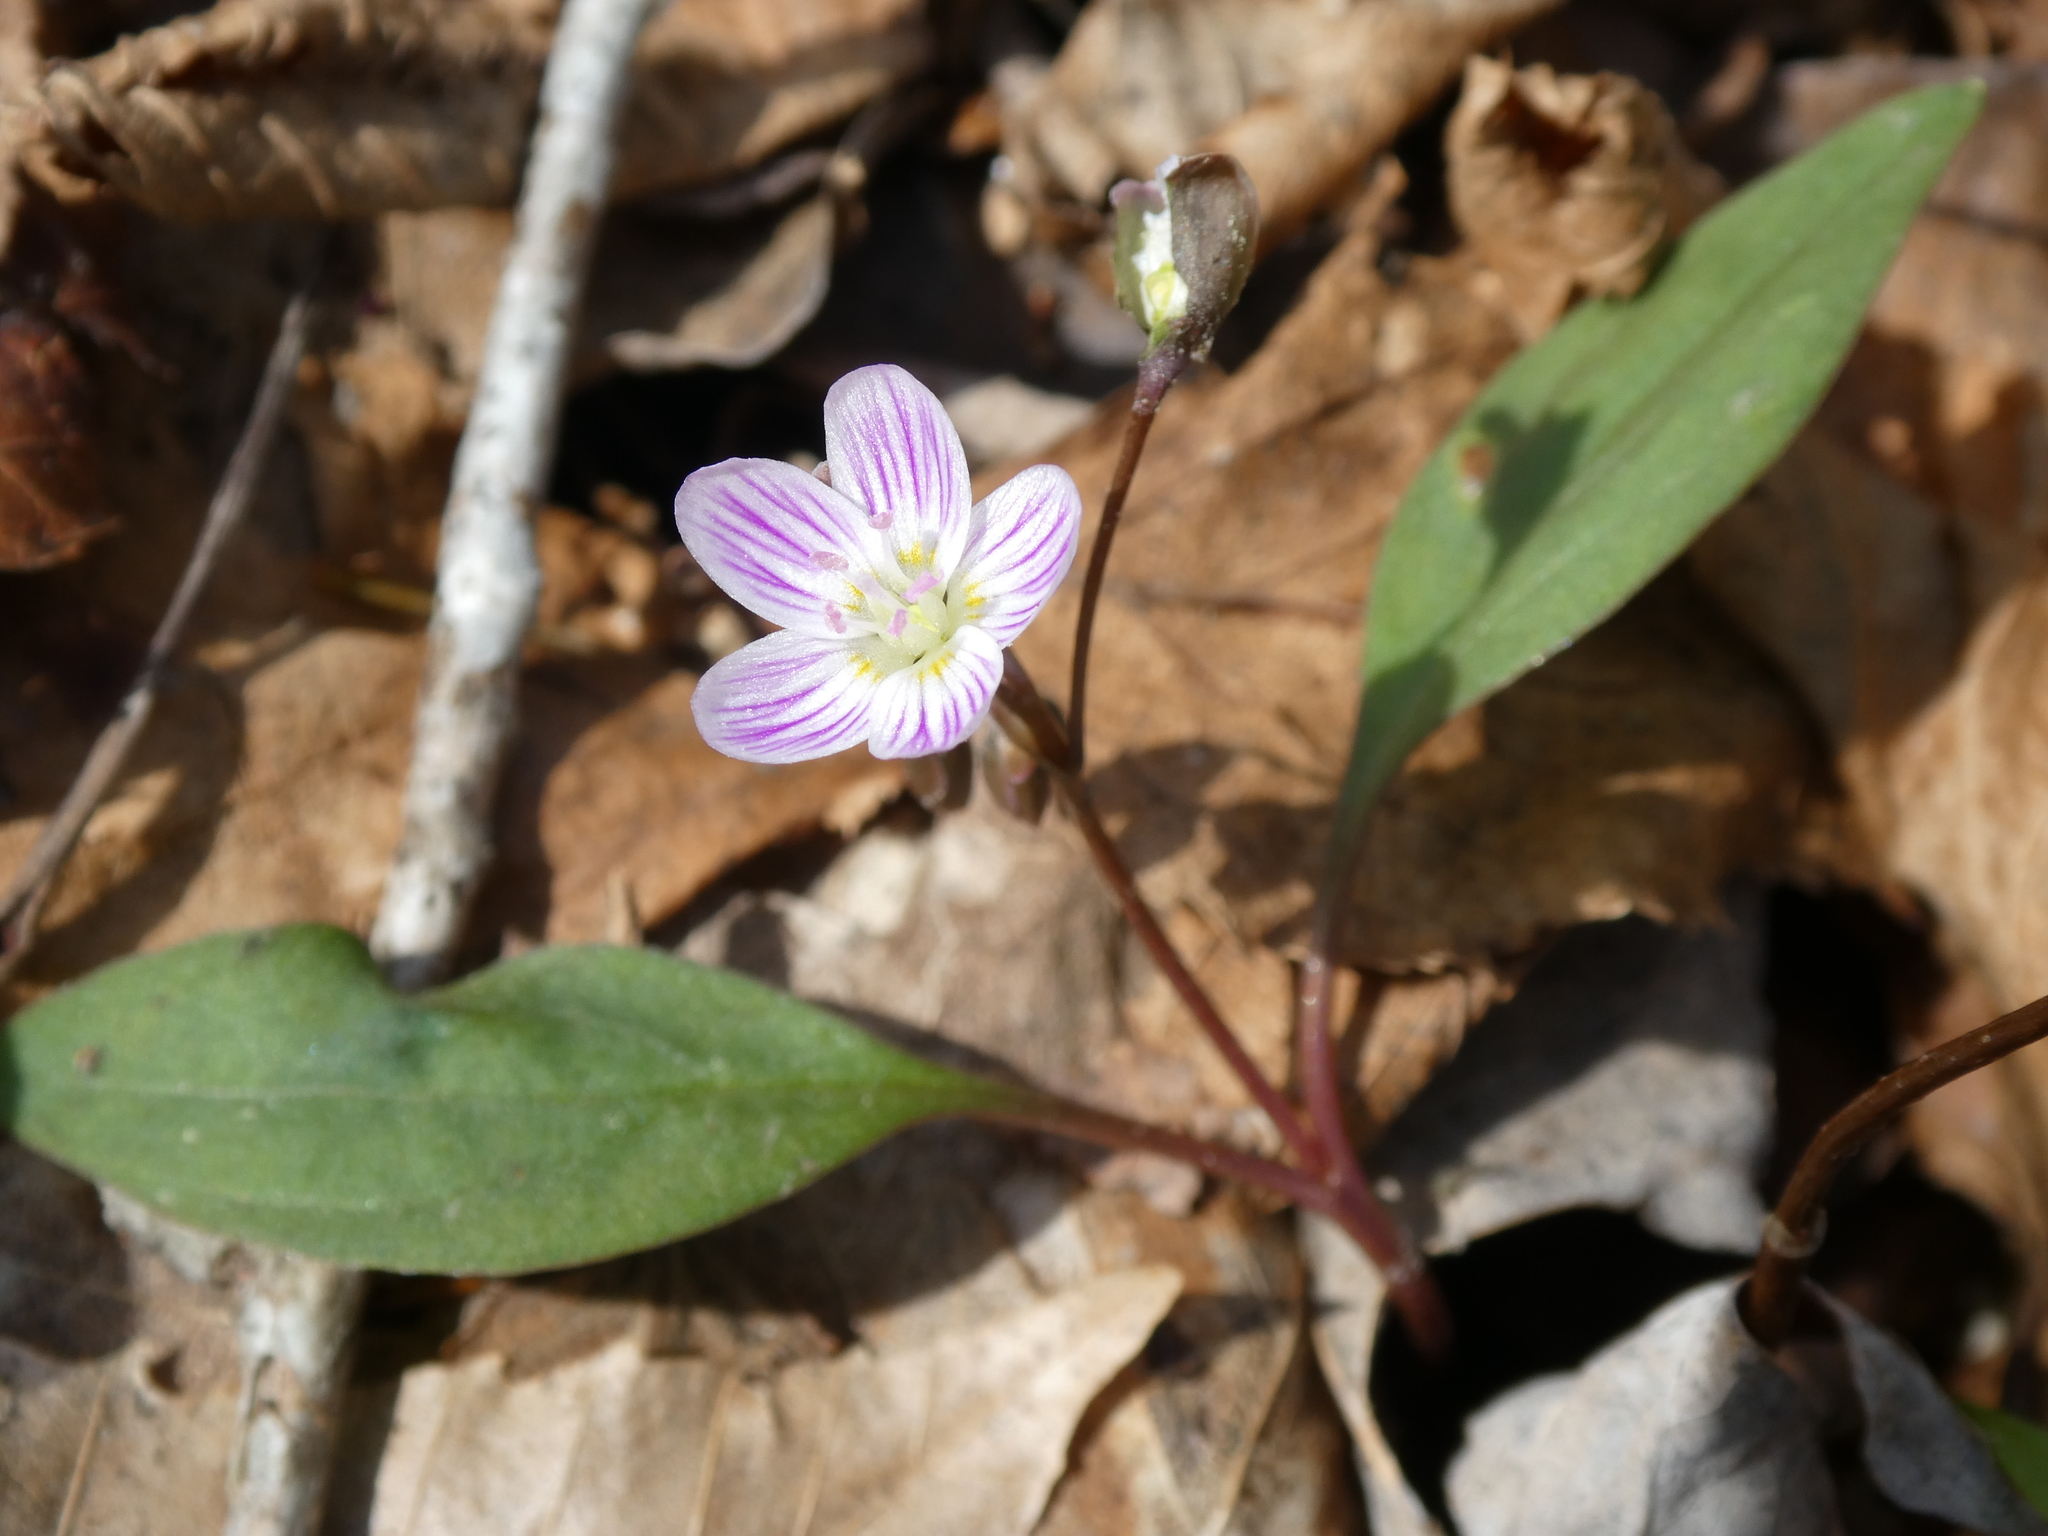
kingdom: Plantae
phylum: Tracheophyta
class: Magnoliopsida
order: Caryophyllales
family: Montiaceae
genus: Claytonia
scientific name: Claytonia caroliniana
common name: Carolina spring beauty
